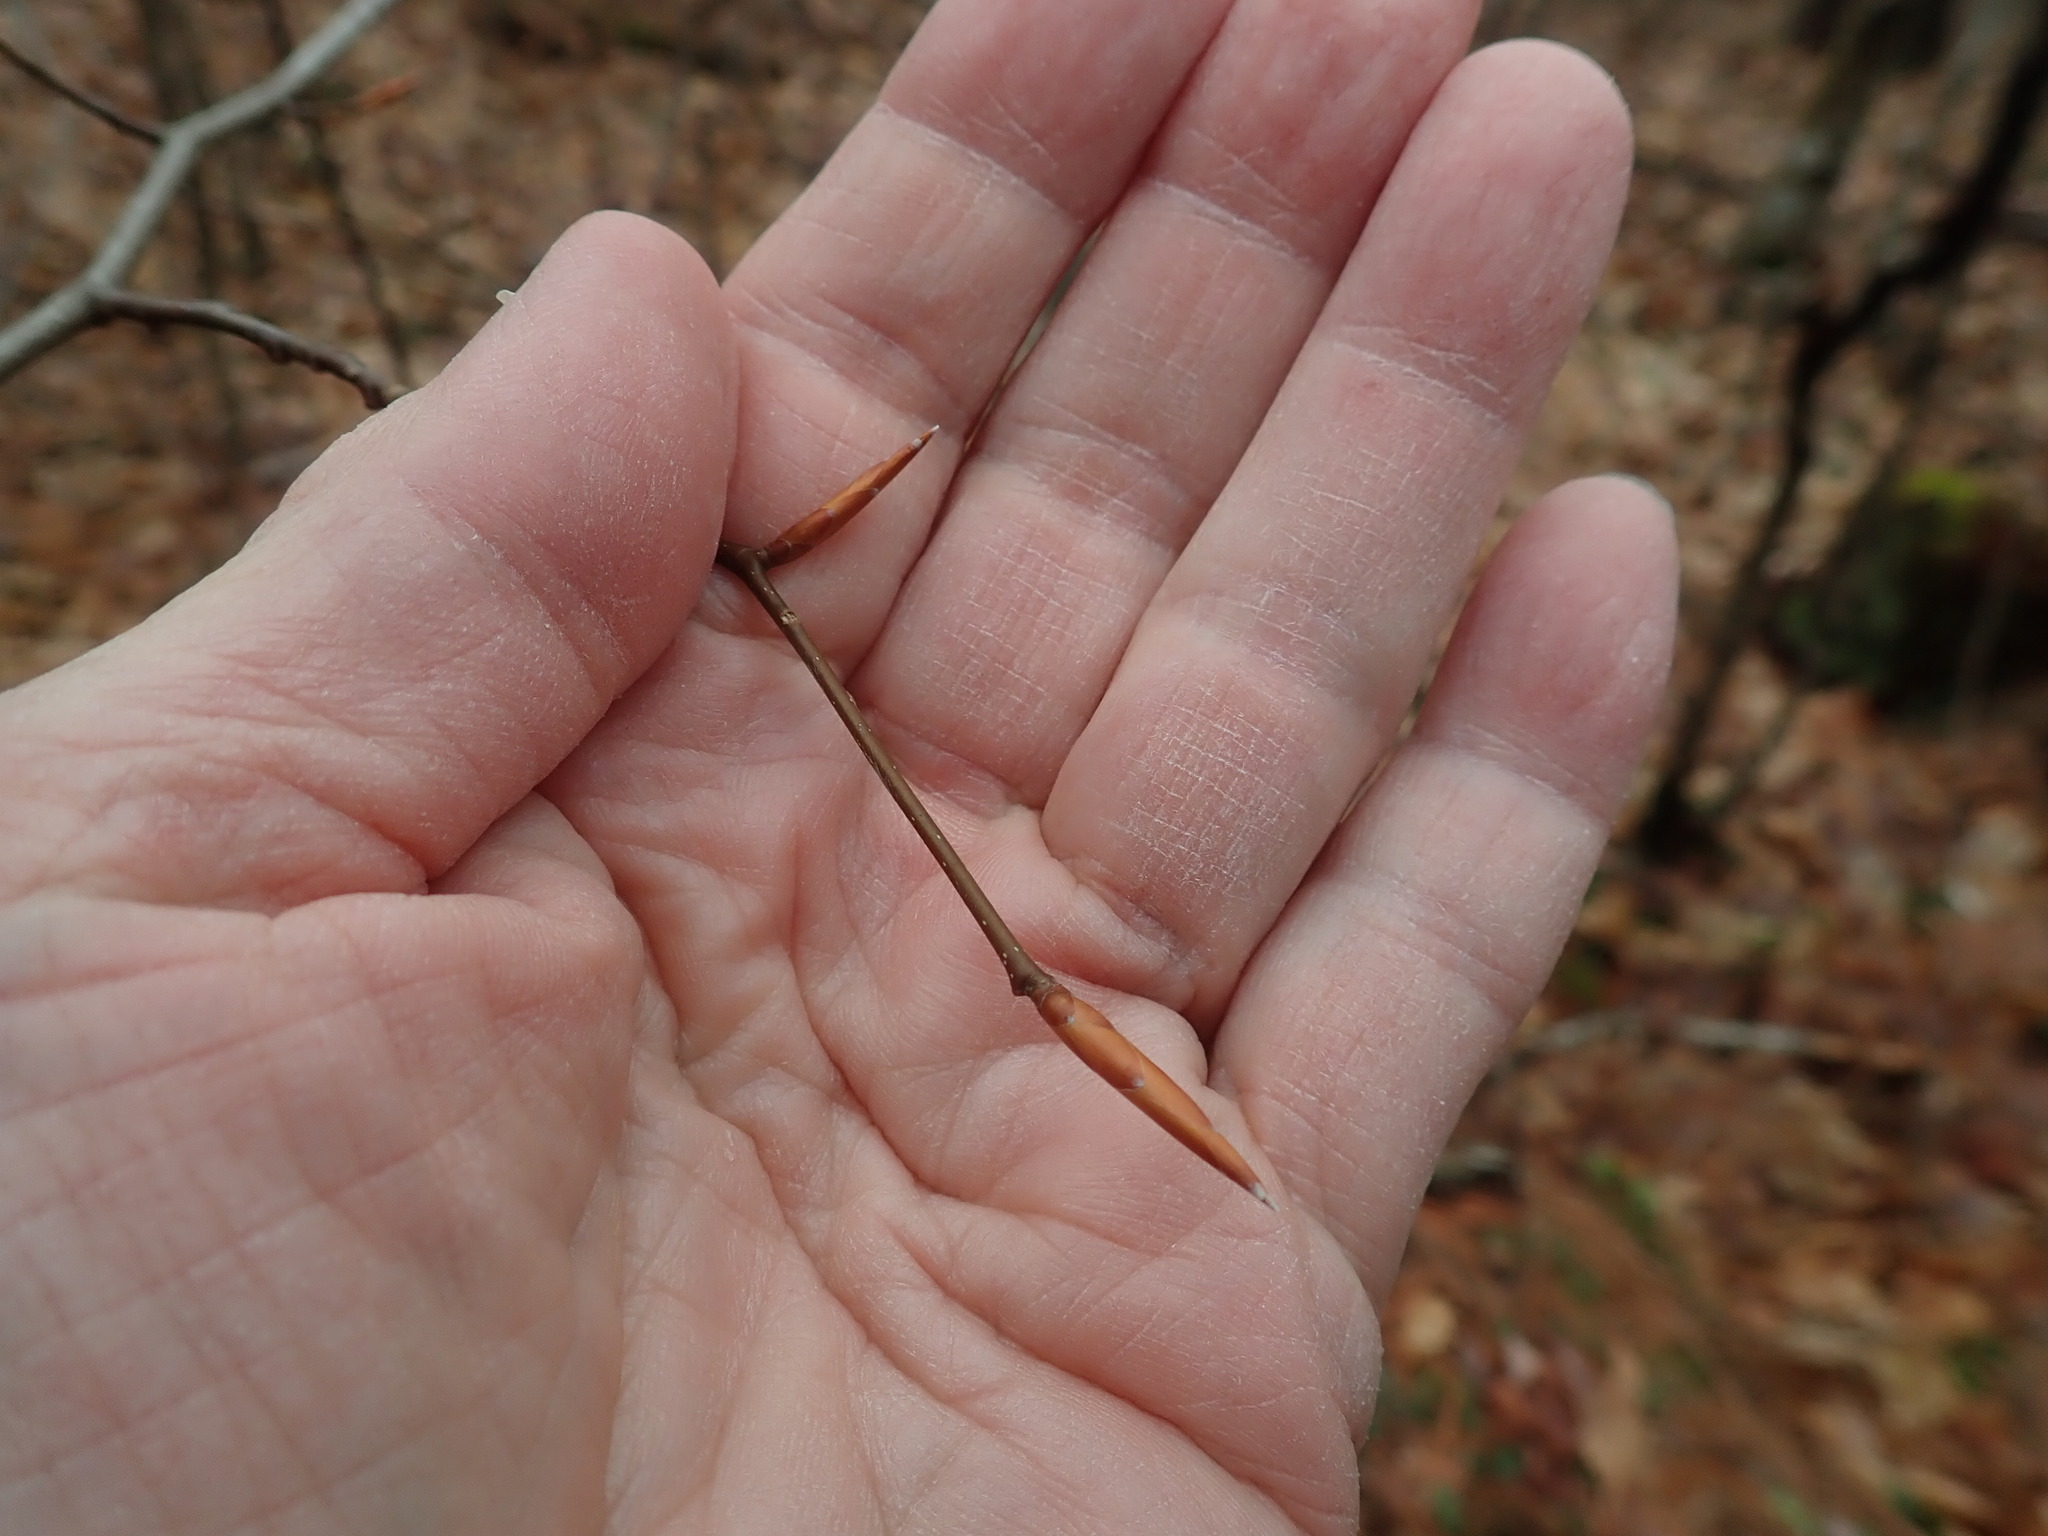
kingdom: Plantae
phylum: Tracheophyta
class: Magnoliopsida
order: Fagales
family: Fagaceae
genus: Fagus
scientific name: Fagus grandifolia
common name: American beech
